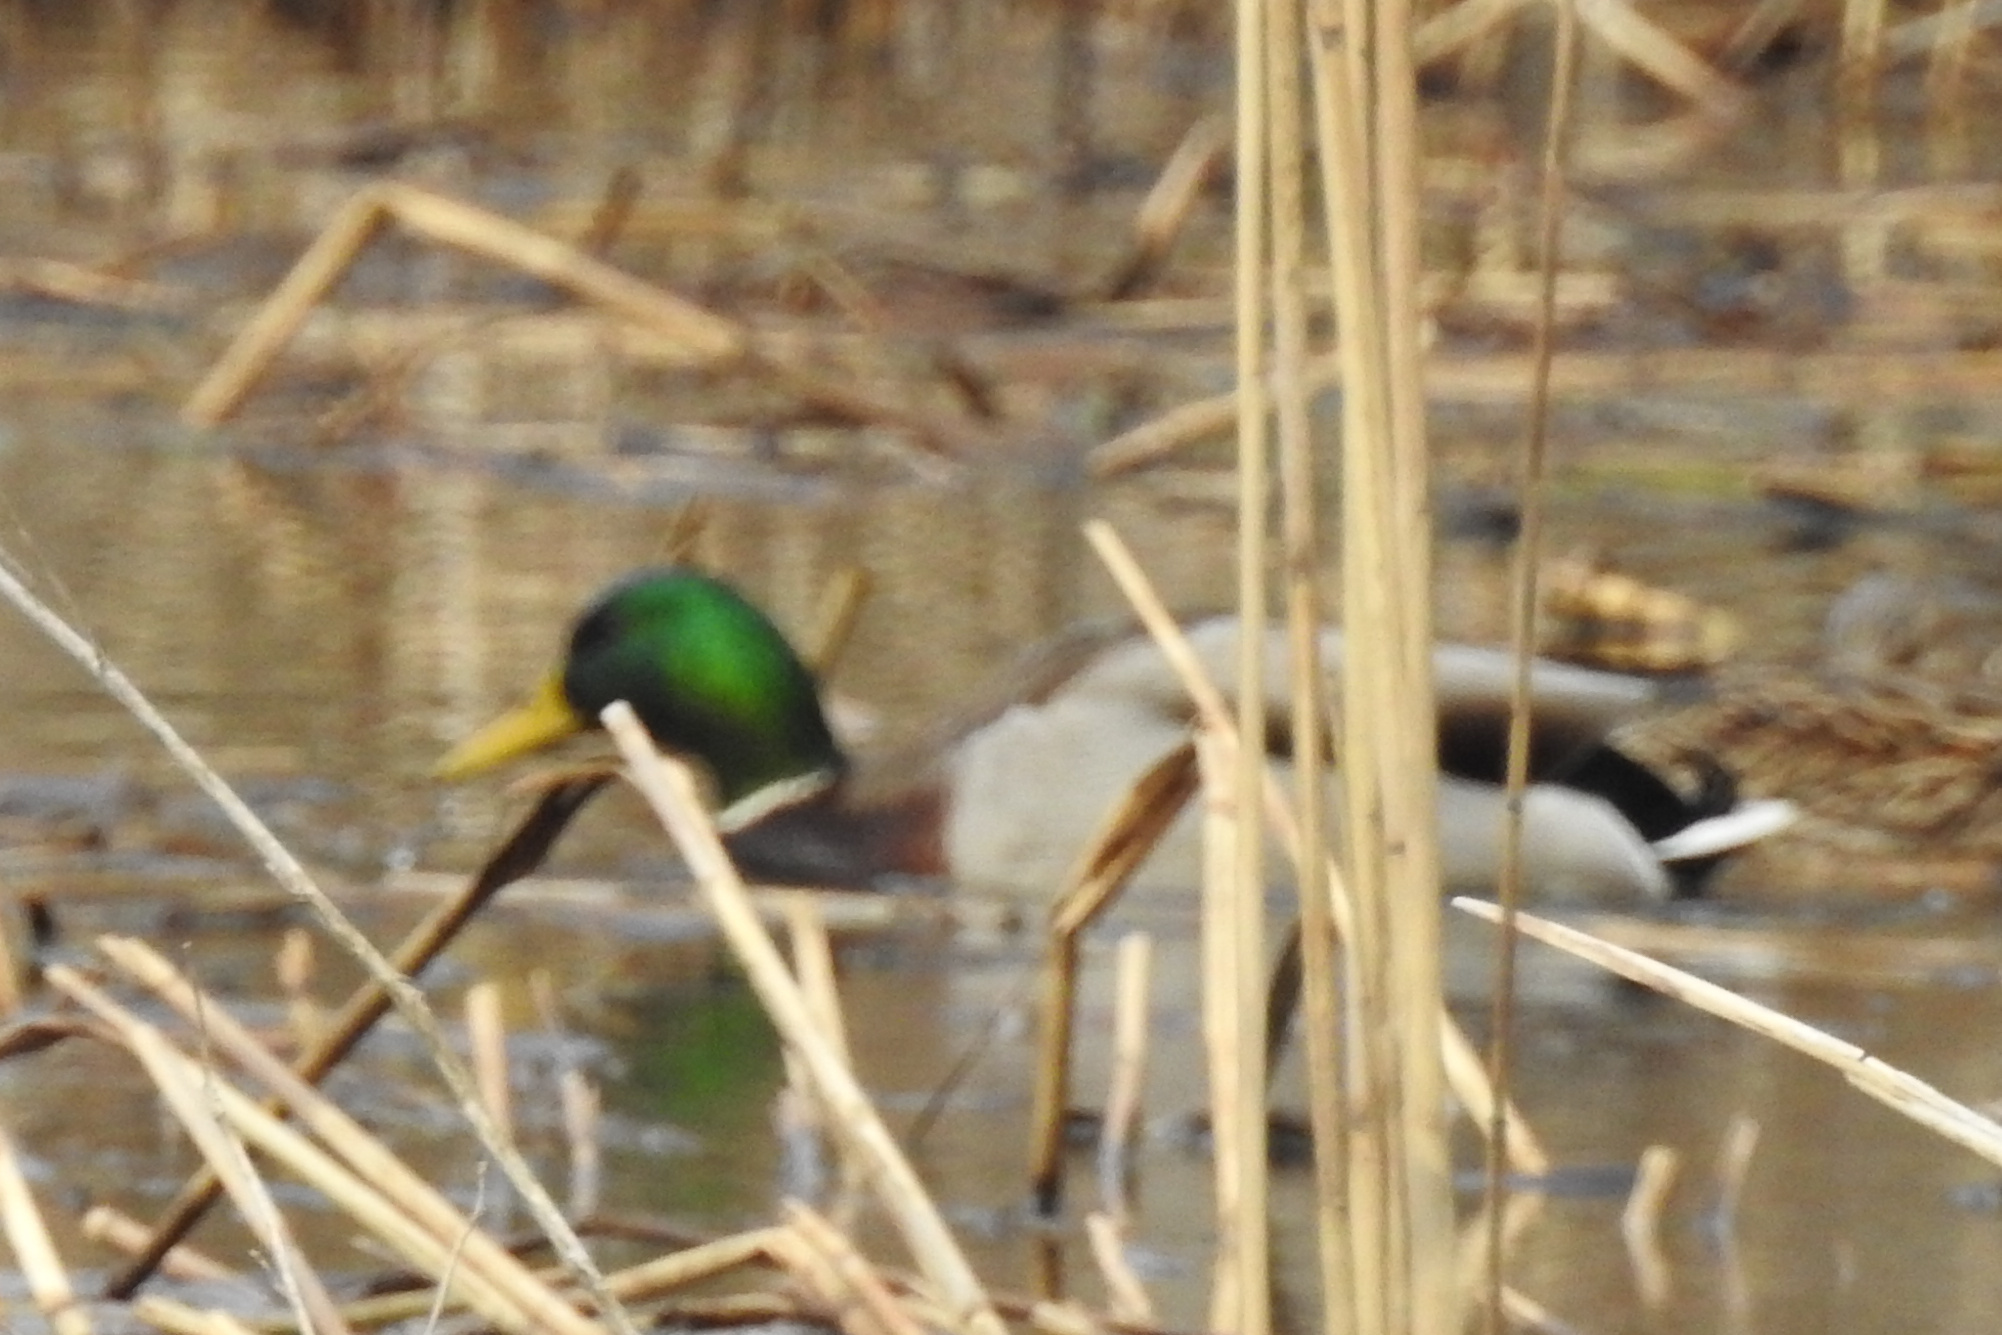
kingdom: Animalia
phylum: Chordata
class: Aves
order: Anseriformes
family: Anatidae
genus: Anas
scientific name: Anas platyrhynchos
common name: Mallard
